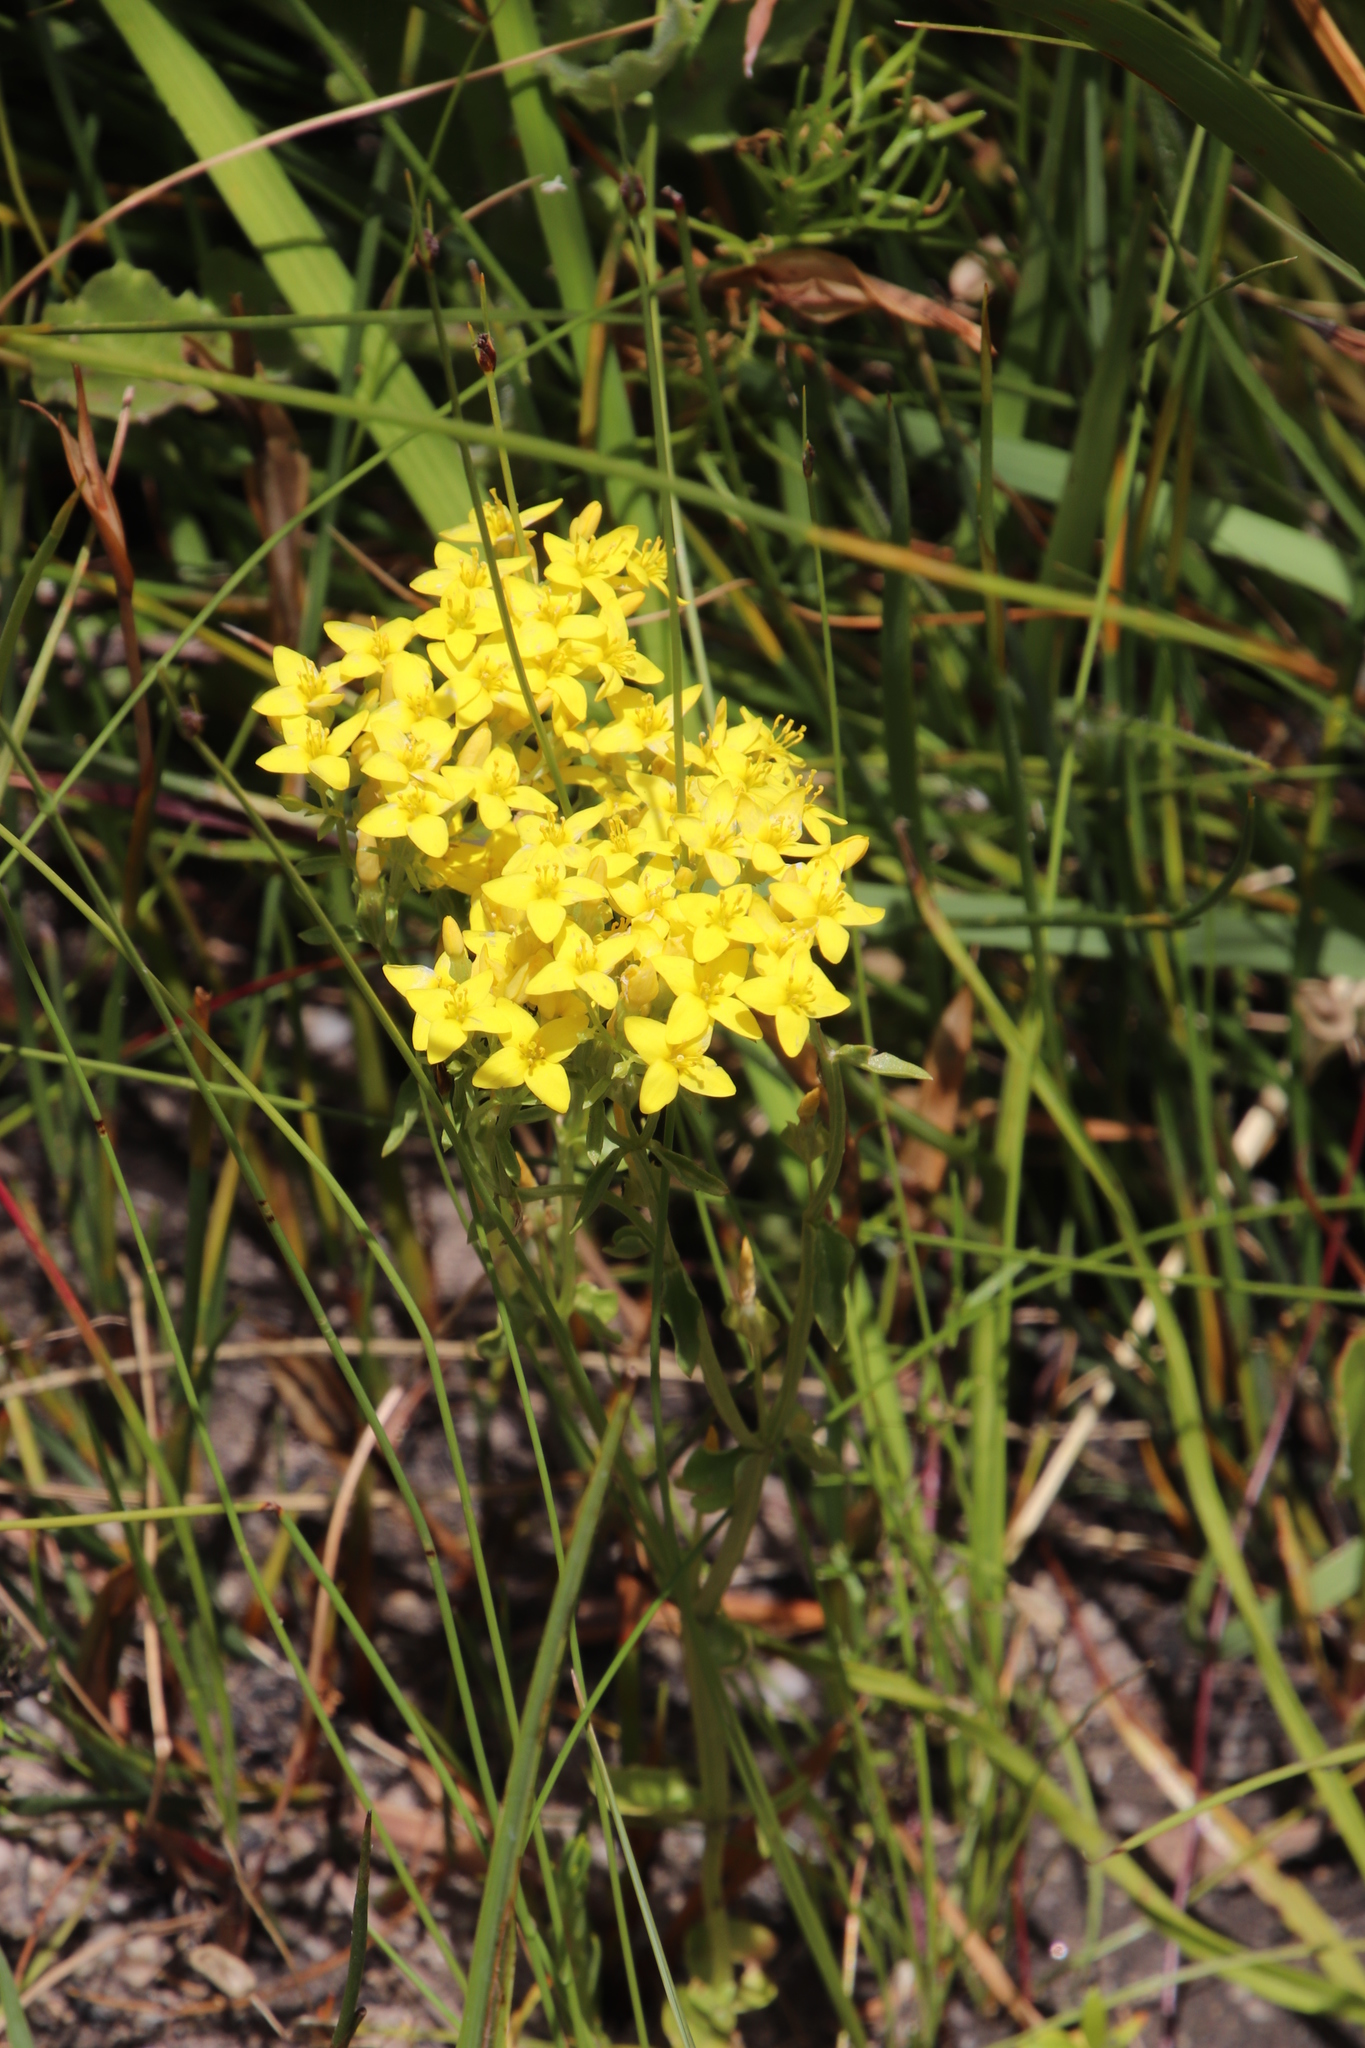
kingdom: Plantae
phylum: Tracheophyta
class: Magnoliopsida
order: Gentianales
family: Gentianaceae
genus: Sebaea
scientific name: Sebaea aurea
